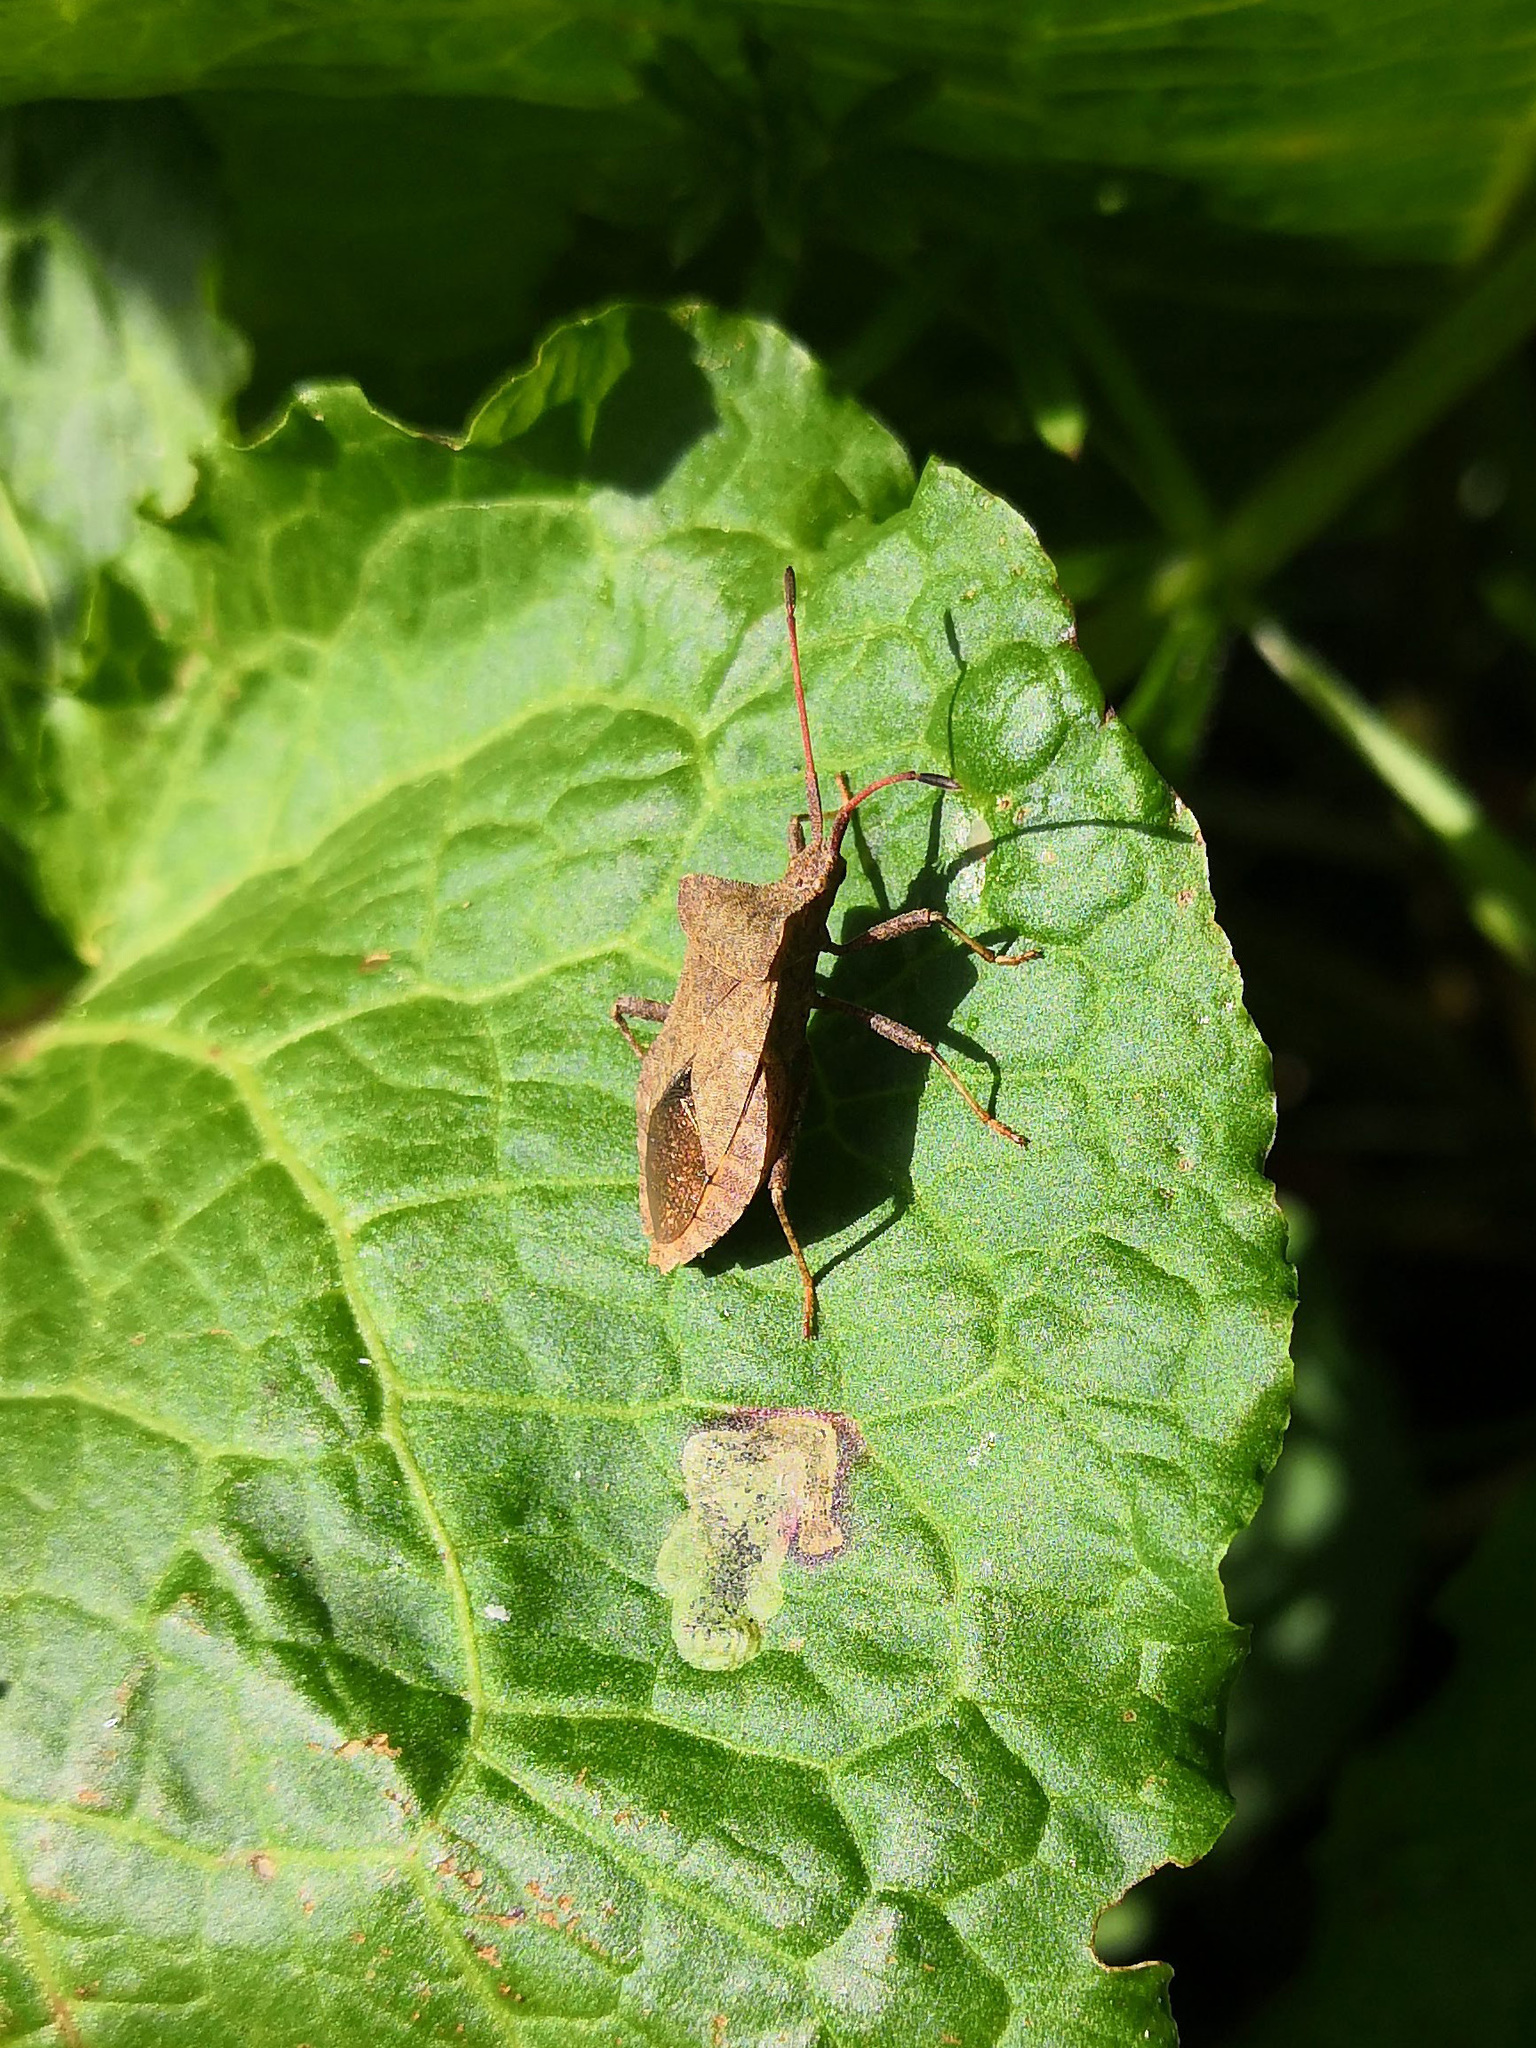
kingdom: Animalia
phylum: Arthropoda
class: Insecta
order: Hemiptera
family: Coreidae
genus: Coreus
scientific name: Coreus marginatus
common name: Dock bug
